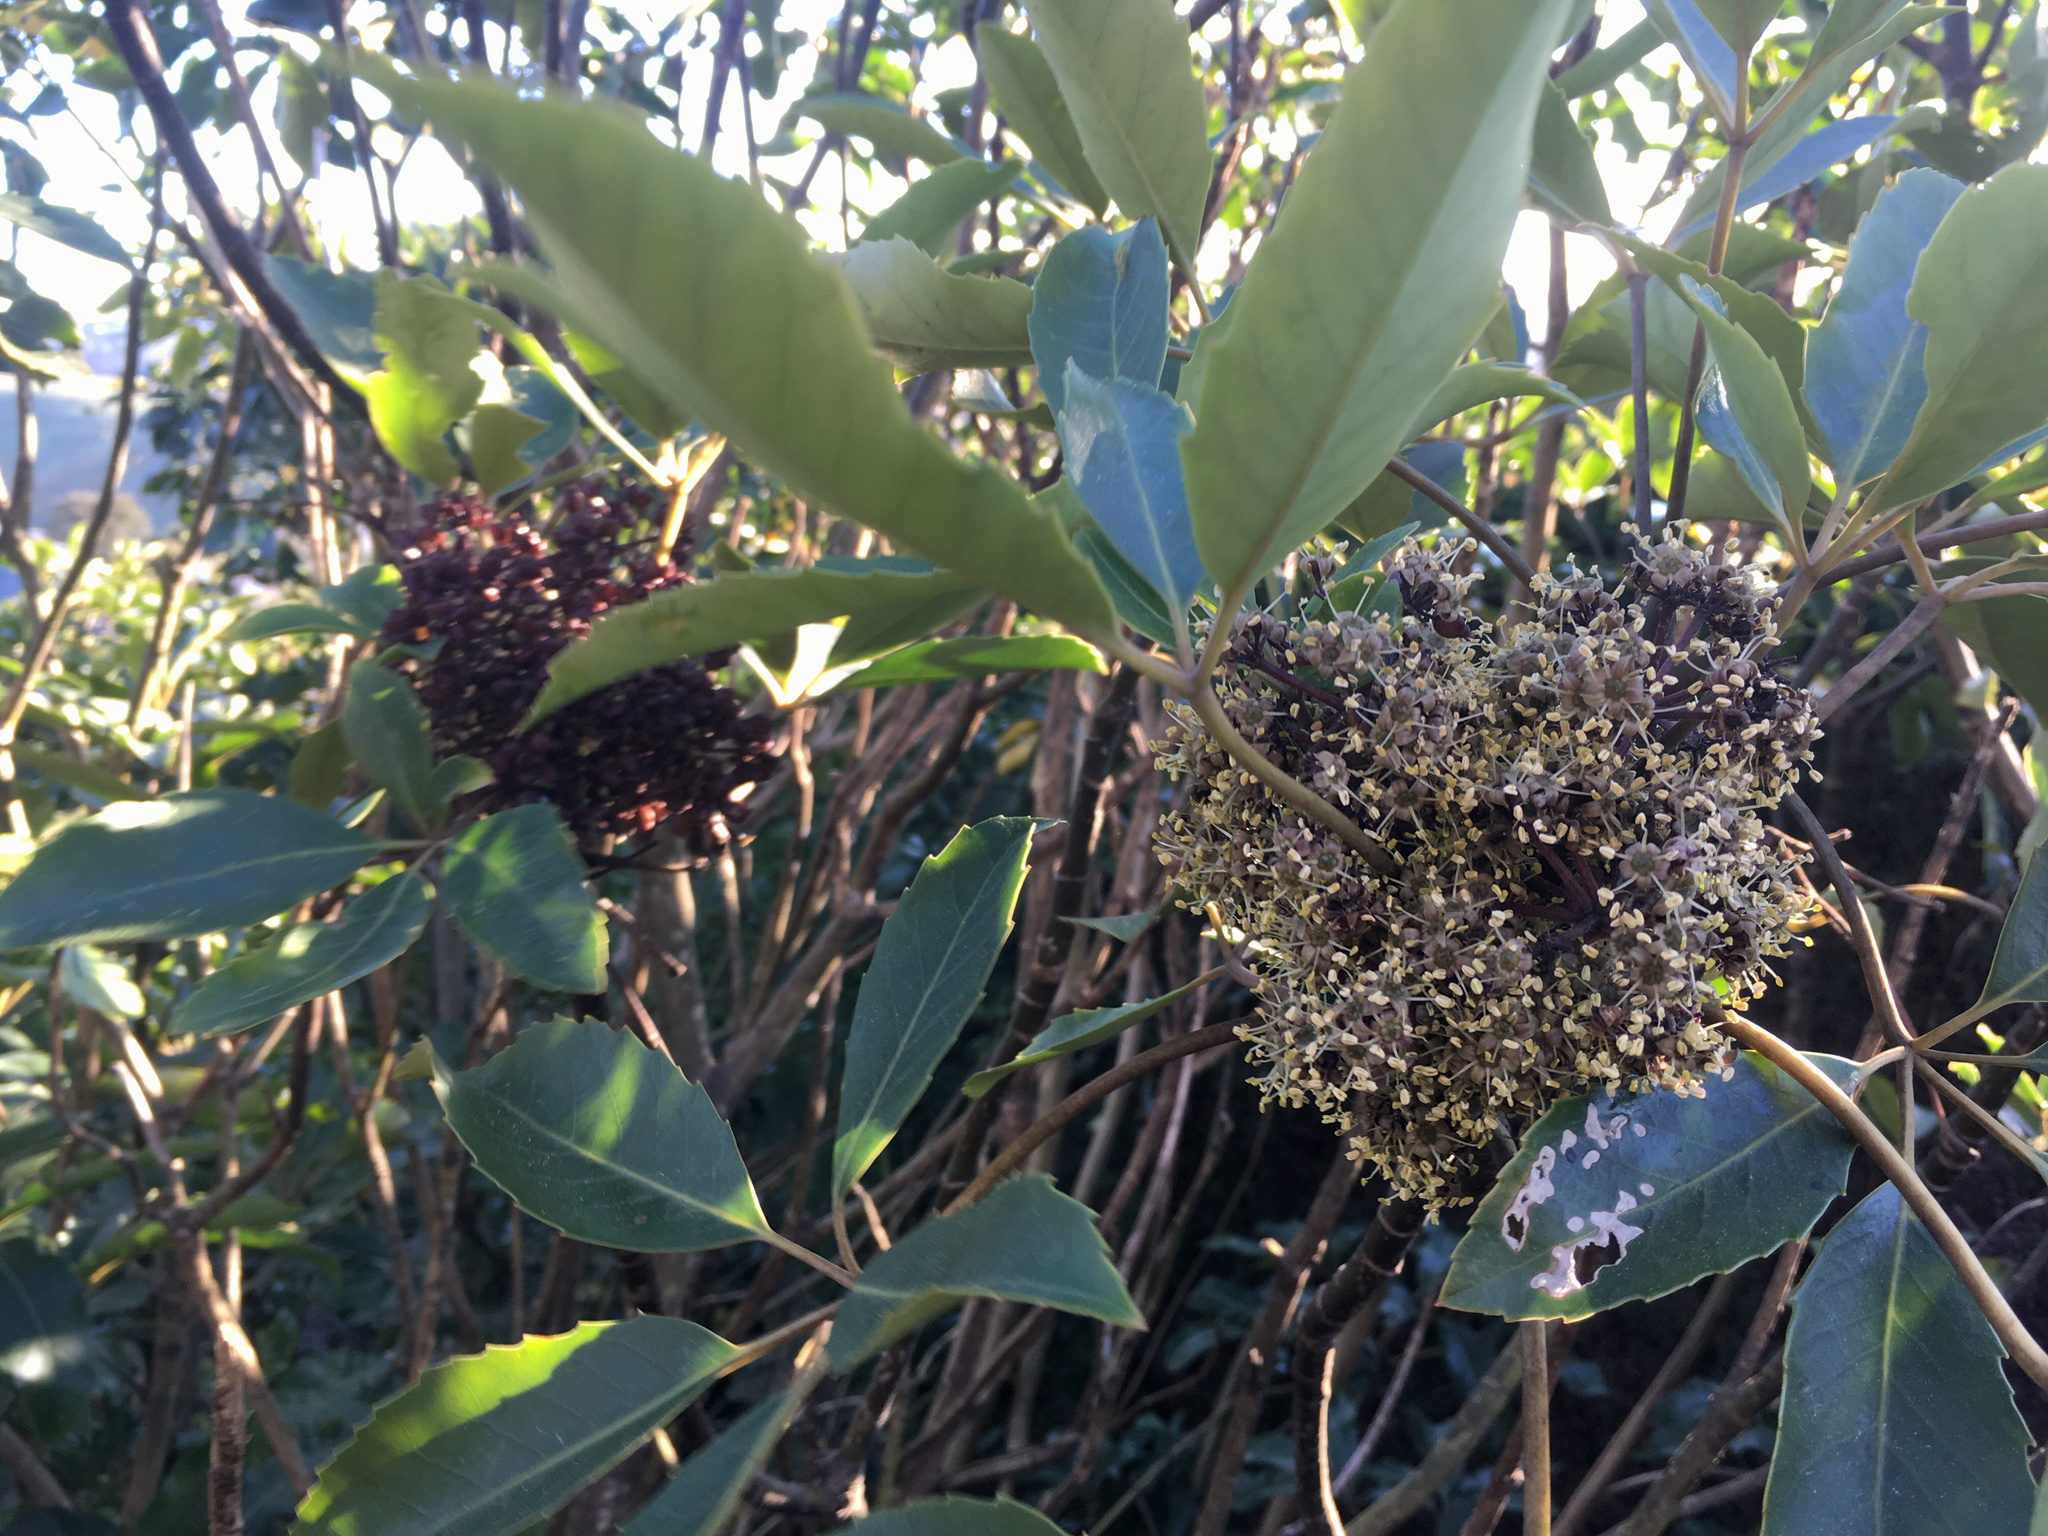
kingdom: Plantae
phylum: Tracheophyta
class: Magnoliopsida
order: Apiales
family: Araliaceae
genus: Neopanax
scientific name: Neopanax arboreus
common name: Five-fingers
